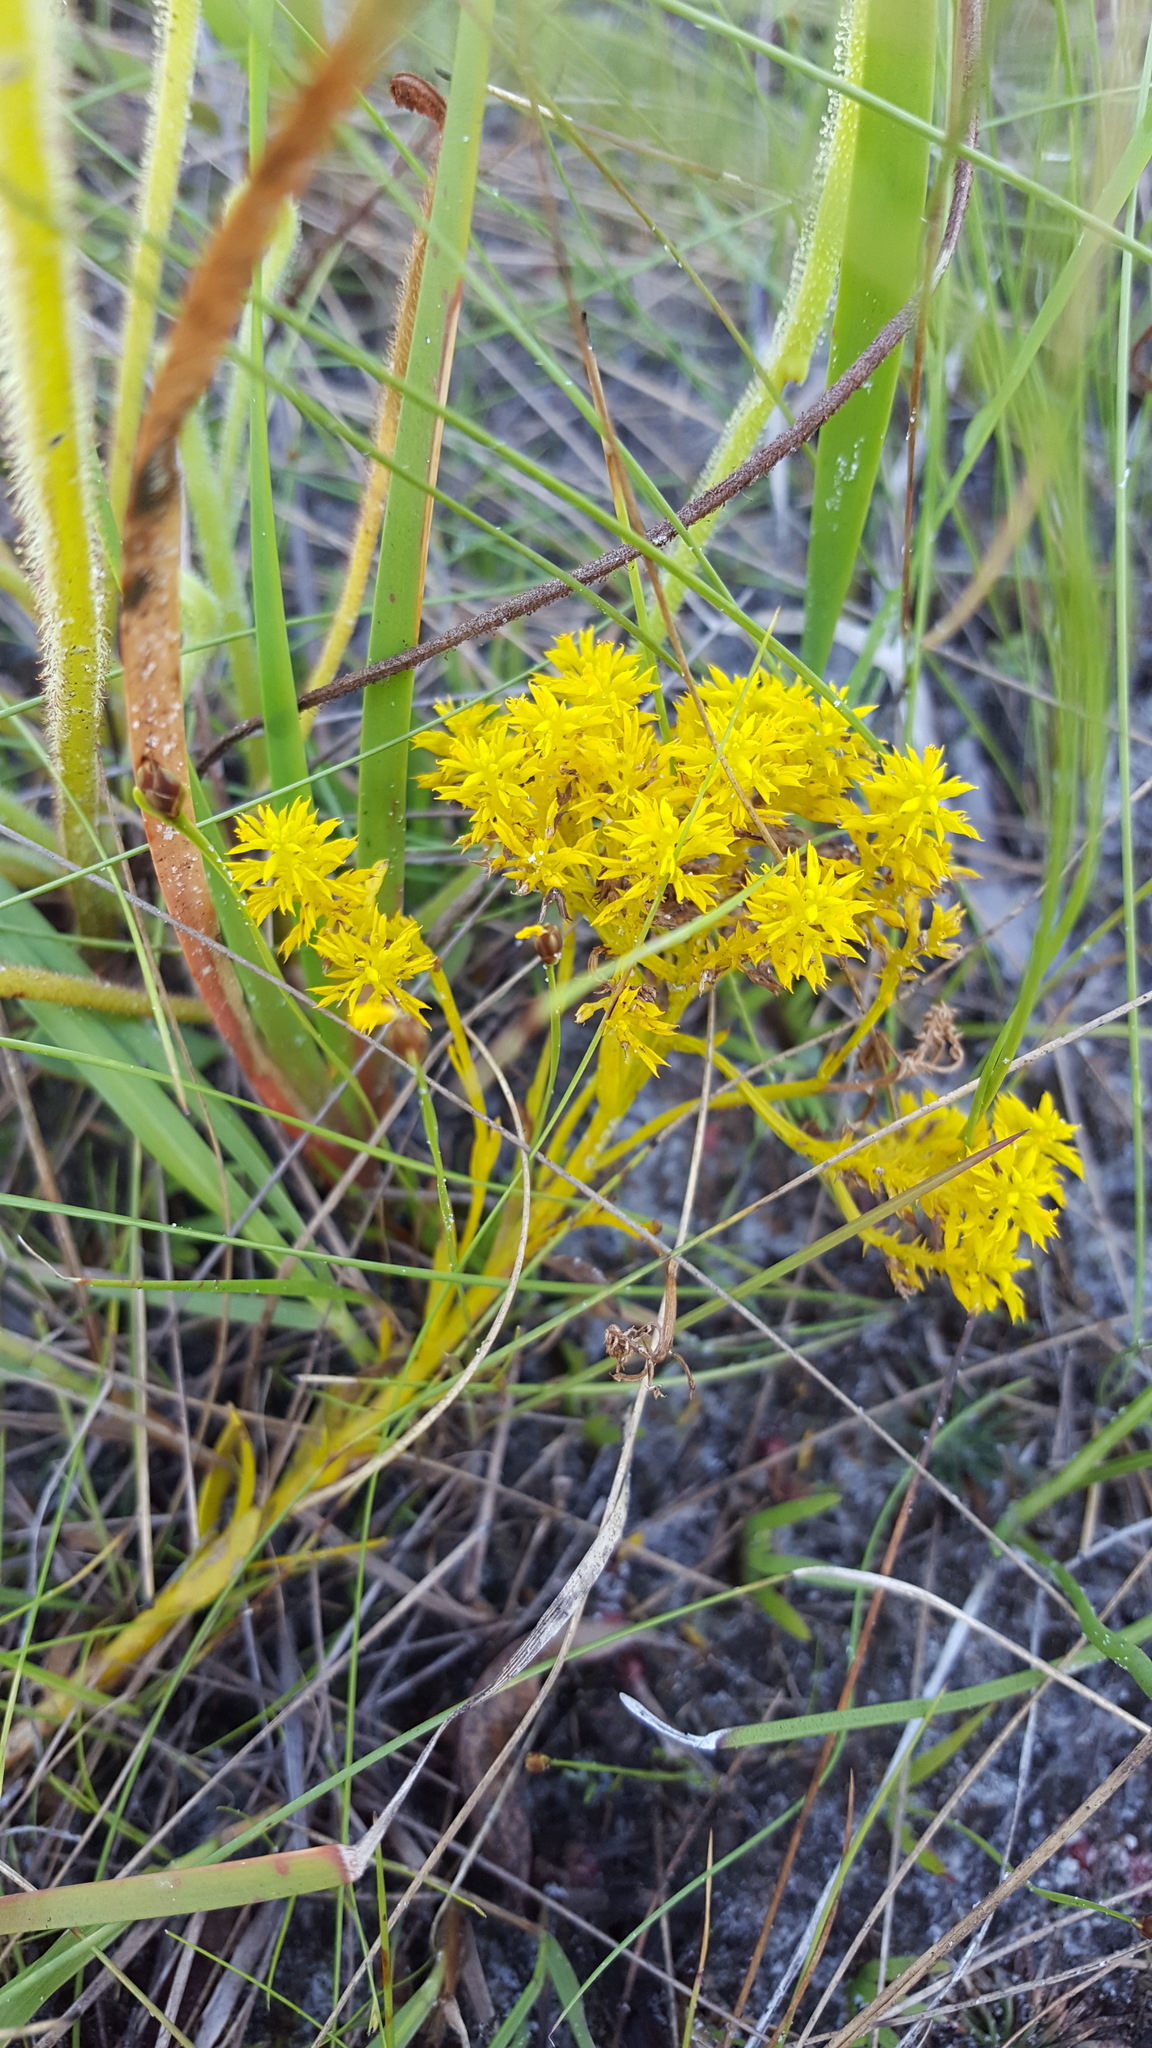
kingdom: Plantae
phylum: Tracheophyta
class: Magnoliopsida
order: Fabales
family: Polygalaceae
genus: Polygala
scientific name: Polygala ramosa
